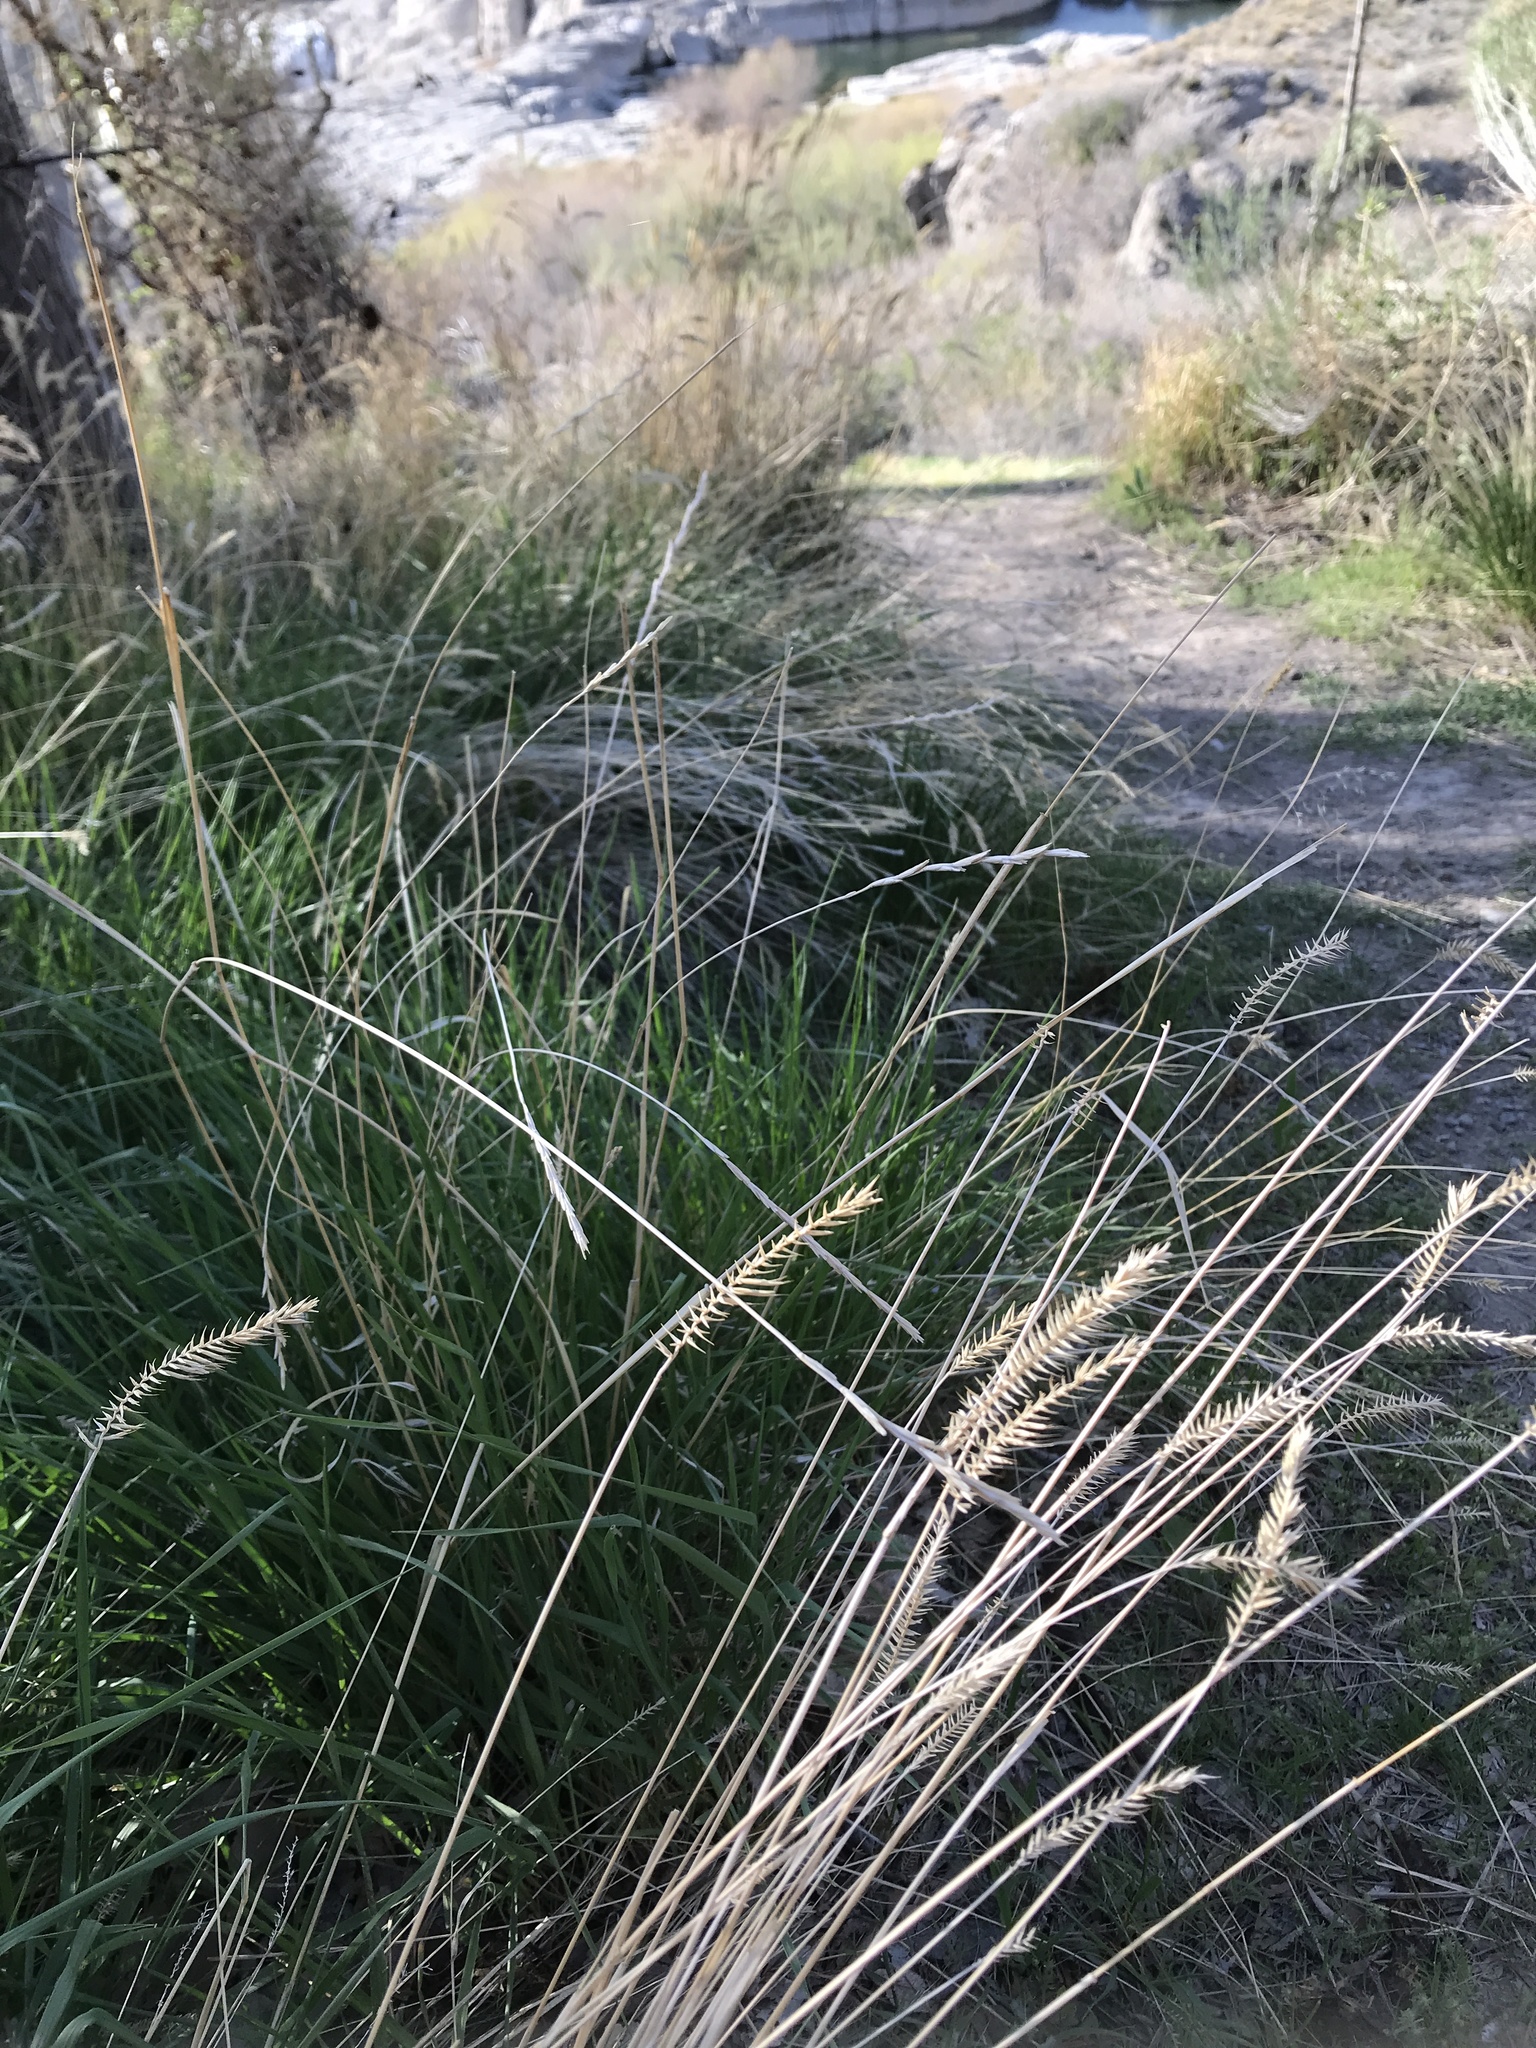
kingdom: Plantae
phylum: Tracheophyta
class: Liliopsida
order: Poales
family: Poaceae
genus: Agropyron
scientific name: Agropyron cristatum
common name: Crested wheatgrass
